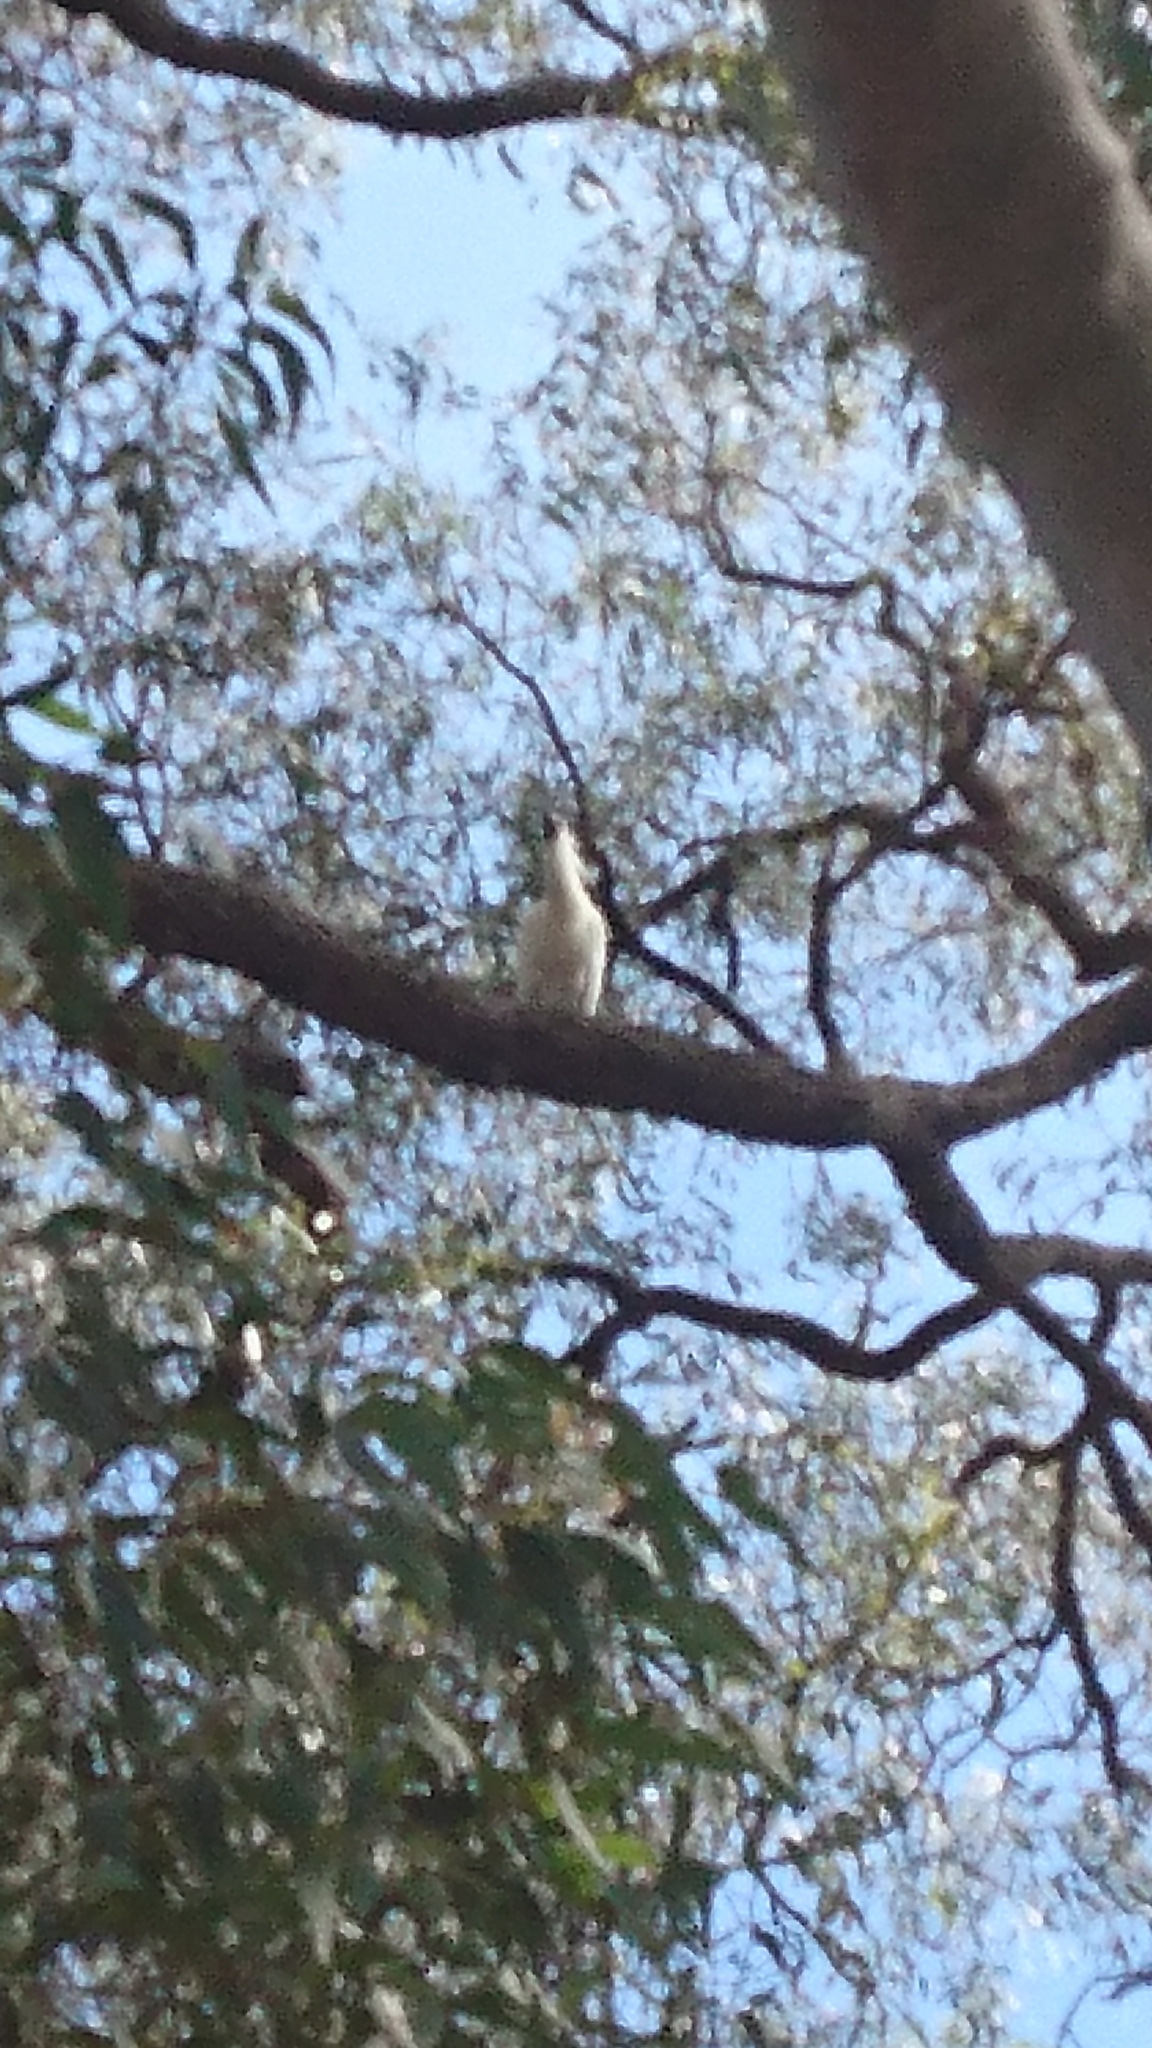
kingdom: Animalia
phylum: Chordata
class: Aves
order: Pelecaniformes
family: Threskiornithidae
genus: Platalea
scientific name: Platalea regia
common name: Royal spoonbill
